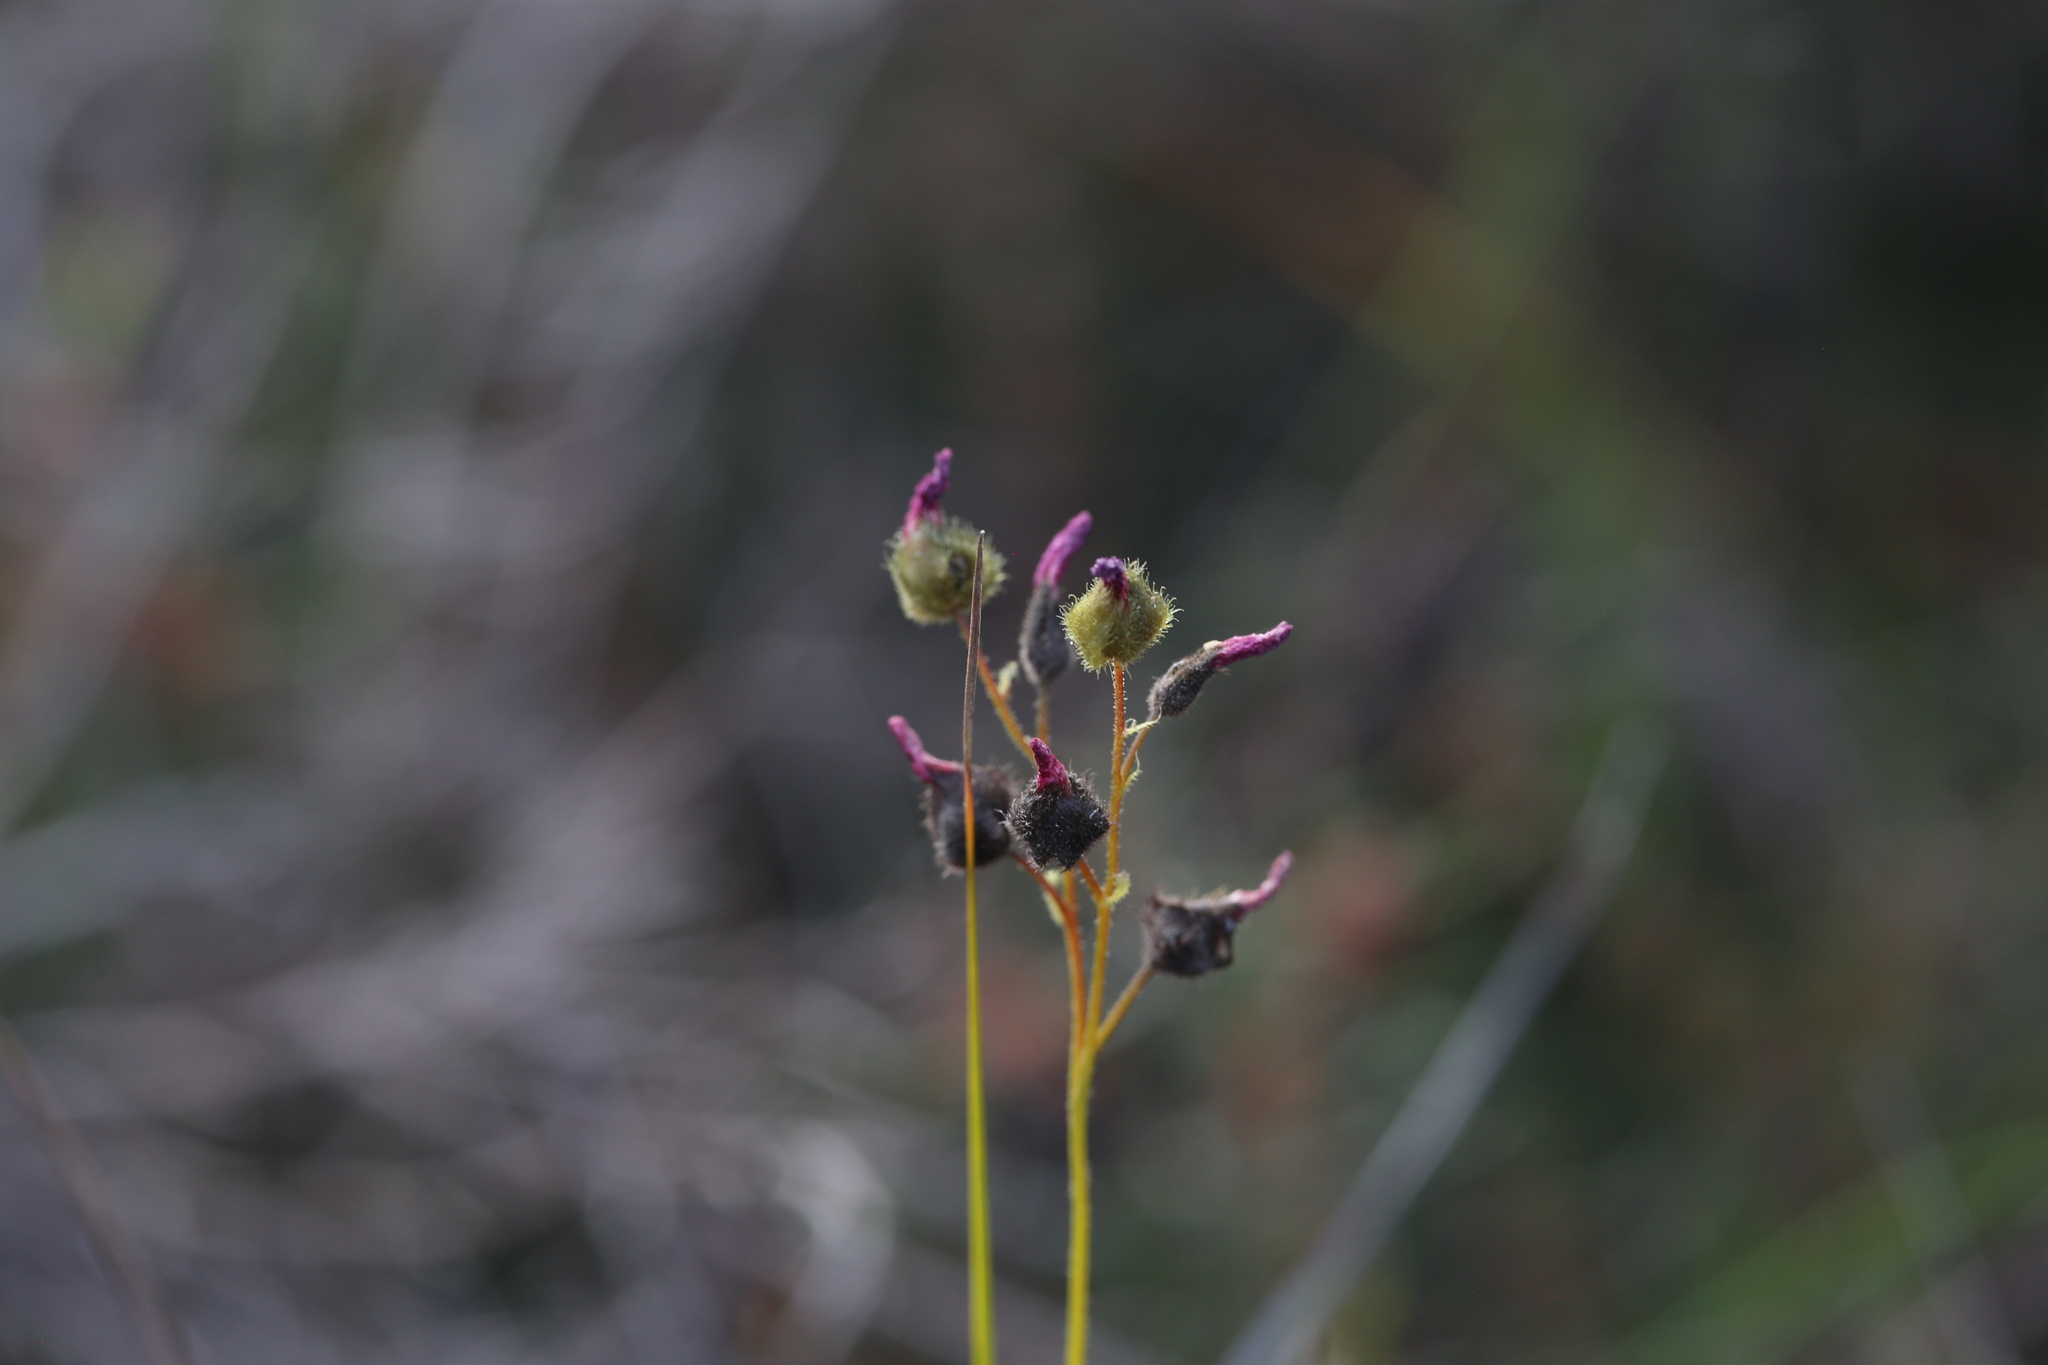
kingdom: Plantae
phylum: Tracheophyta
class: Magnoliopsida
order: Caryophyllales
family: Droseraceae
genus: Drosera
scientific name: Drosera neesii
